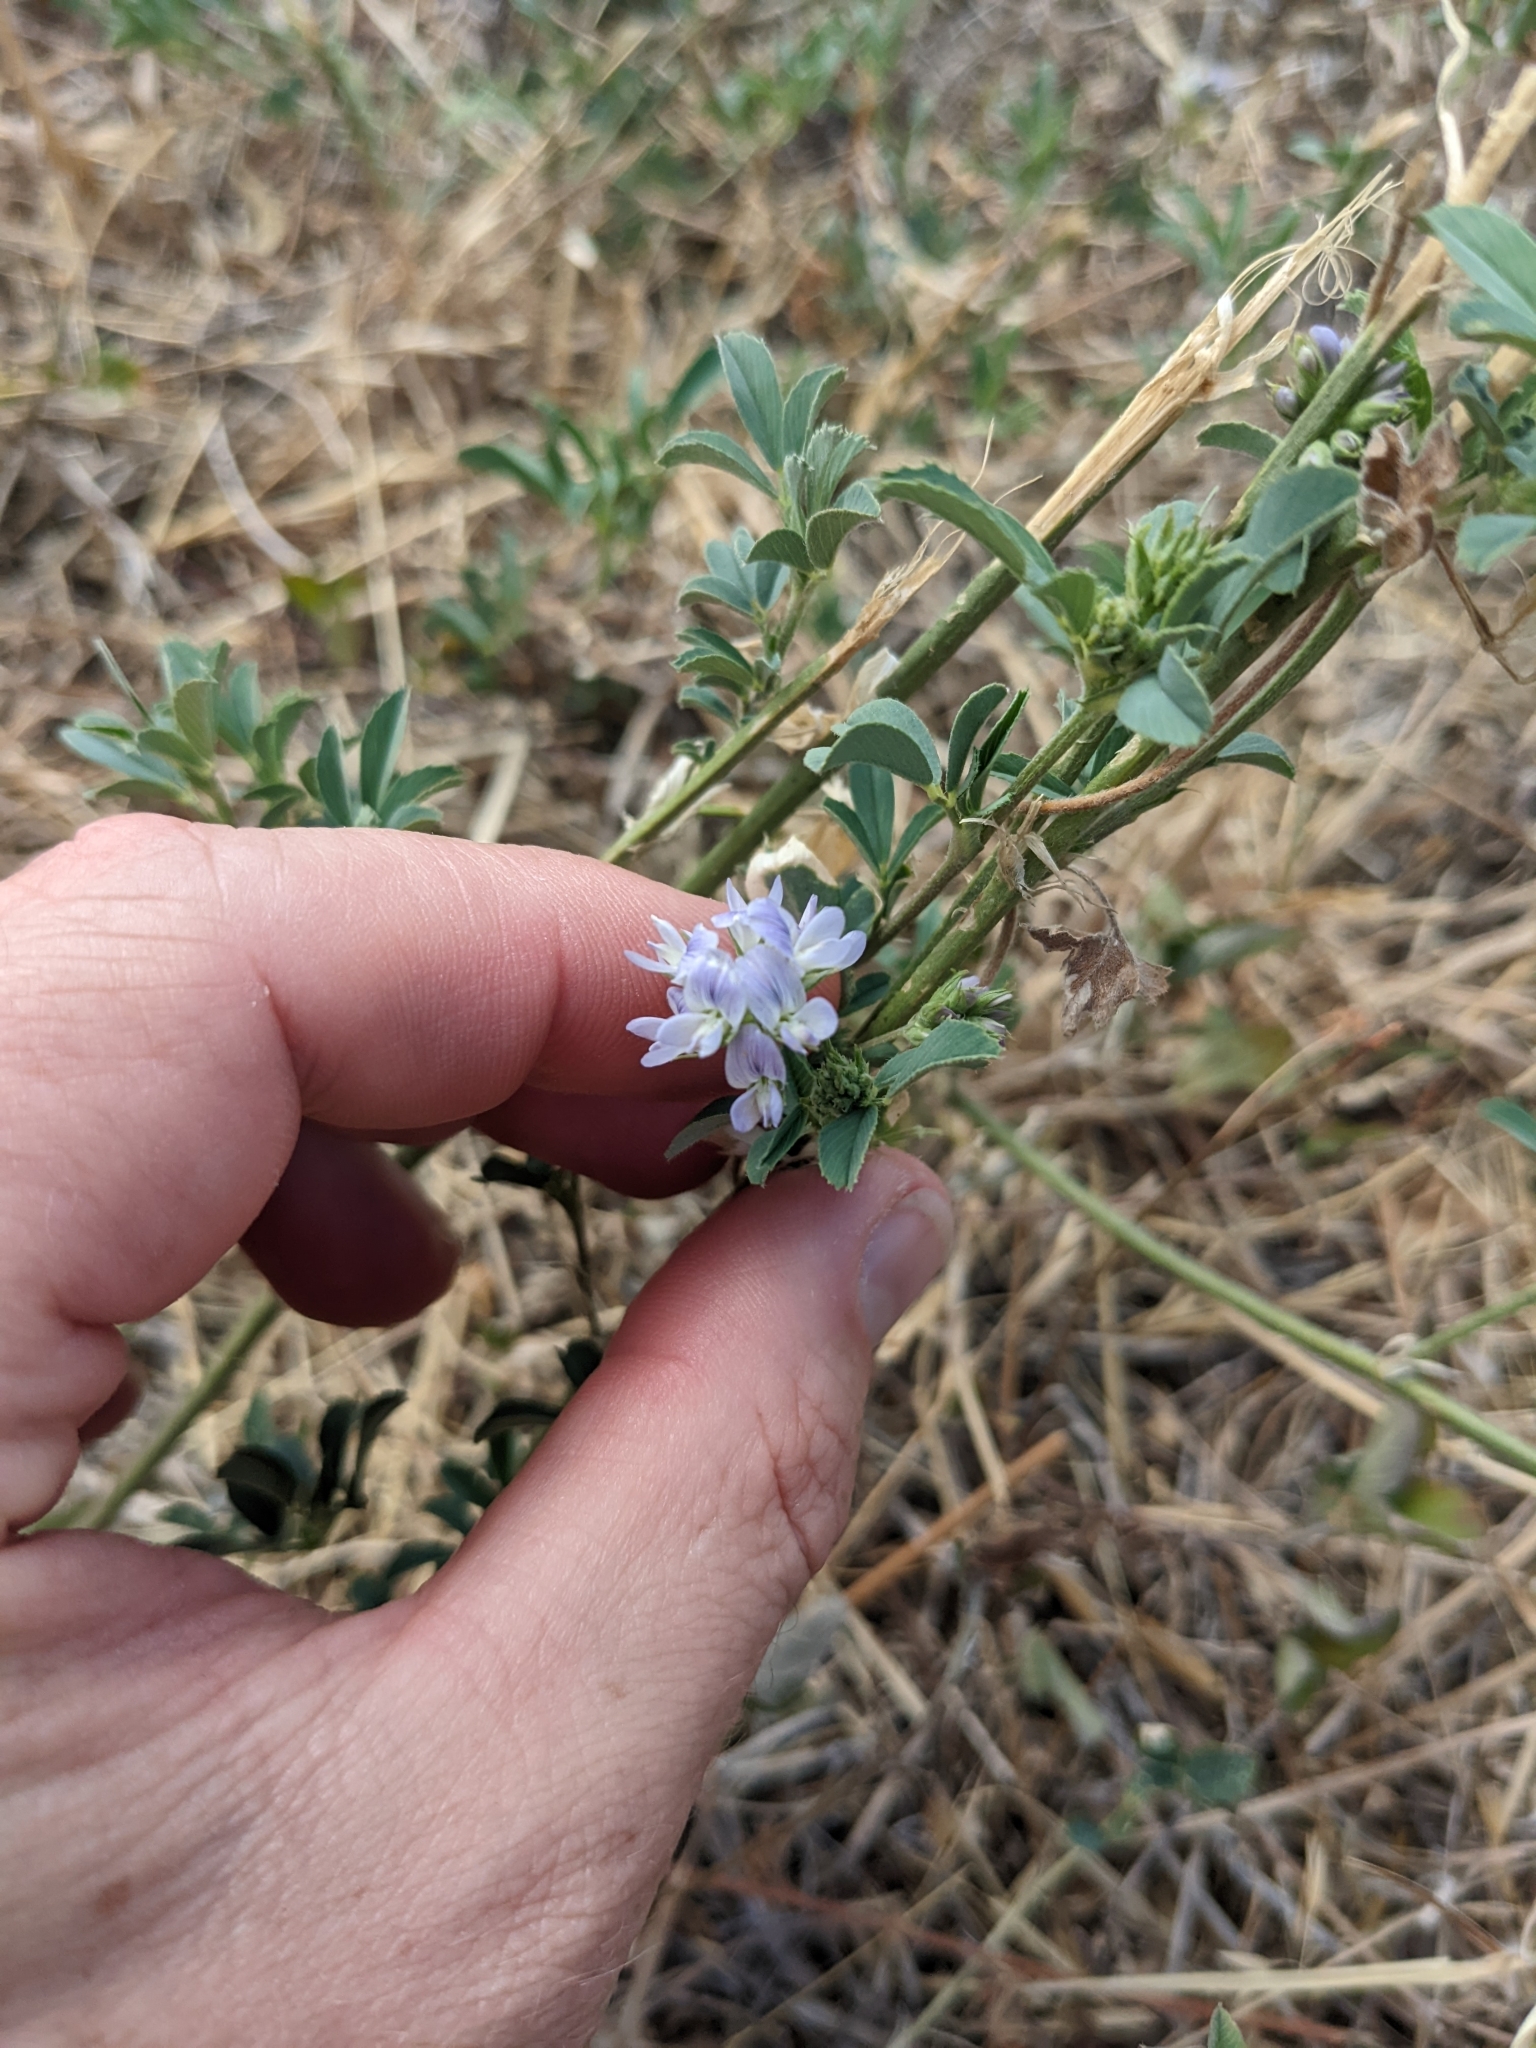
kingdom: Plantae
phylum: Tracheophyta
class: Magnoliopsida
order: Fabales
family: Fabaceae
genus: Medicago
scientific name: Medicago sativa
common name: Alfalfa
